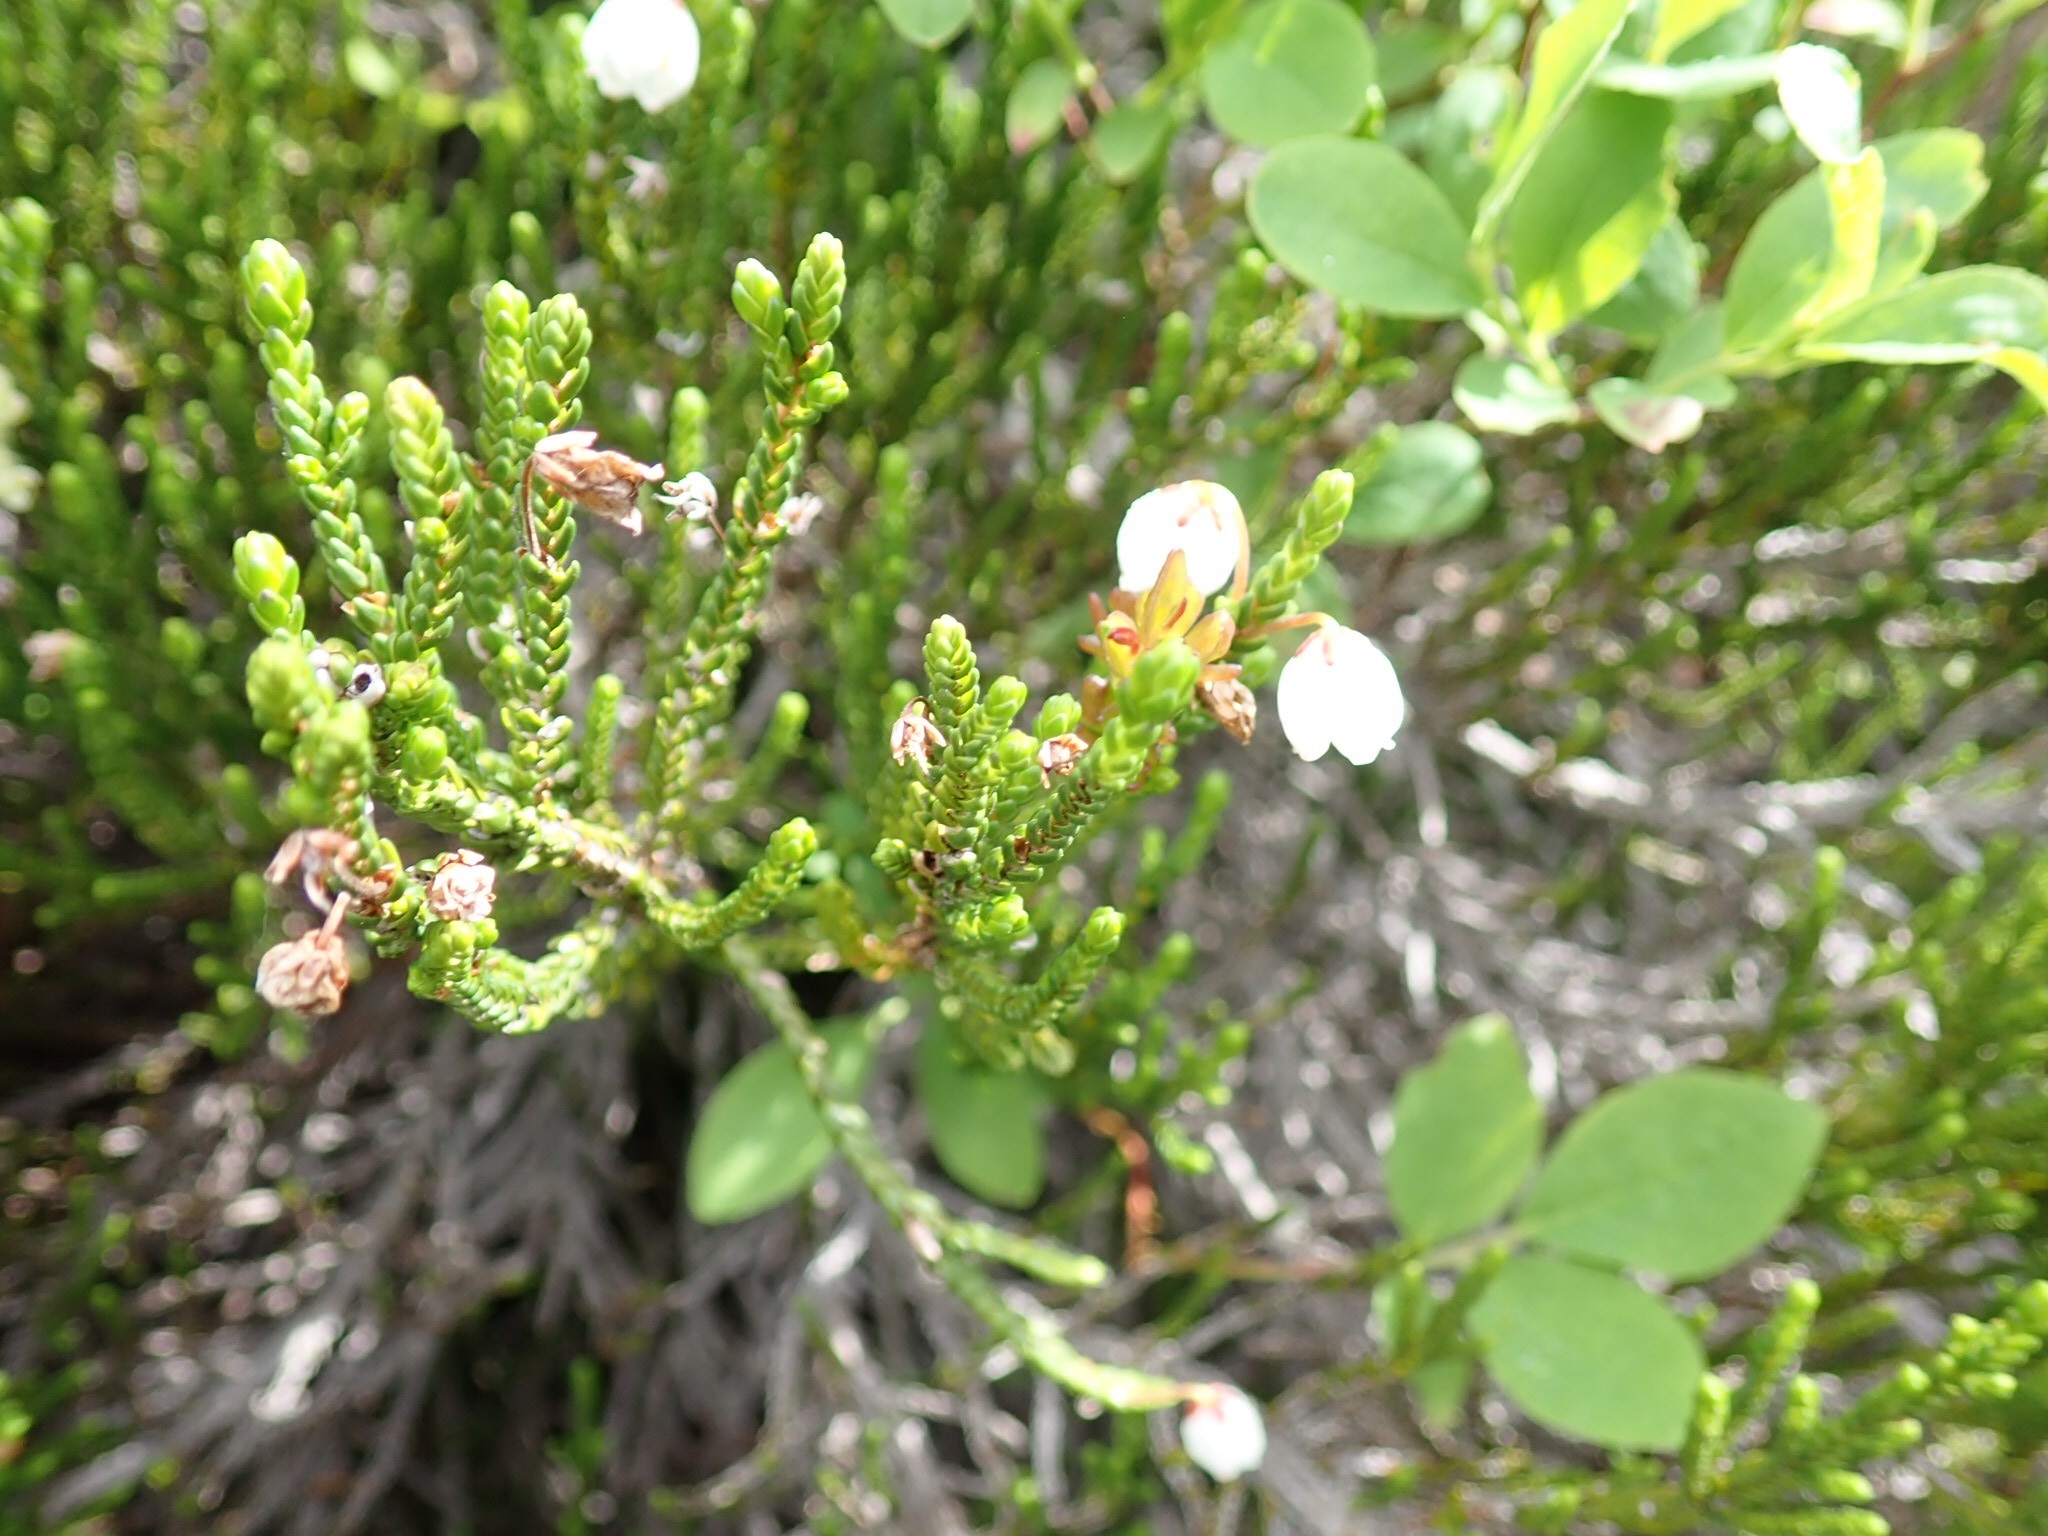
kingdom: Plantae
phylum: Tracheophyta
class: Magnoliopsida
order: Ericales
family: Ericaceae
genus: Cassiope
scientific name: Cassiope mertensiana
